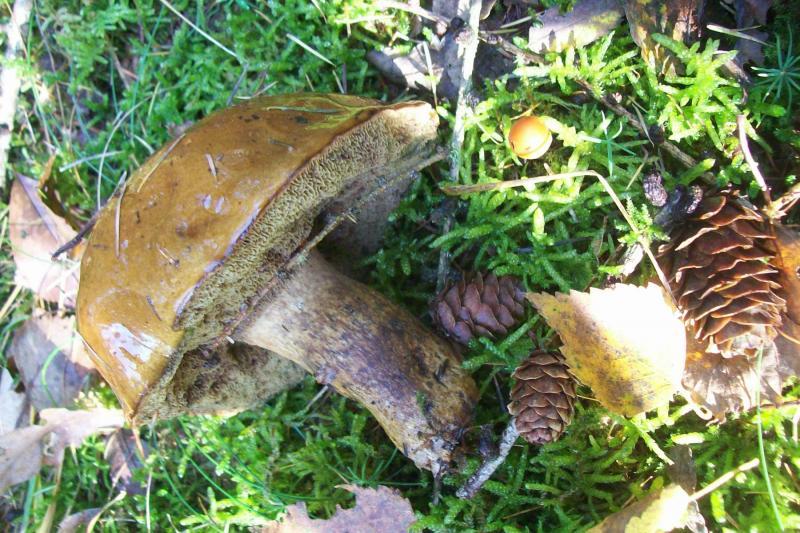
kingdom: Fungi
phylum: Basidiomycota
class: Agaricomycetes
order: Boletales
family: Boletaceae
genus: Imleria
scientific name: Imleria badia
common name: Bay bolete
